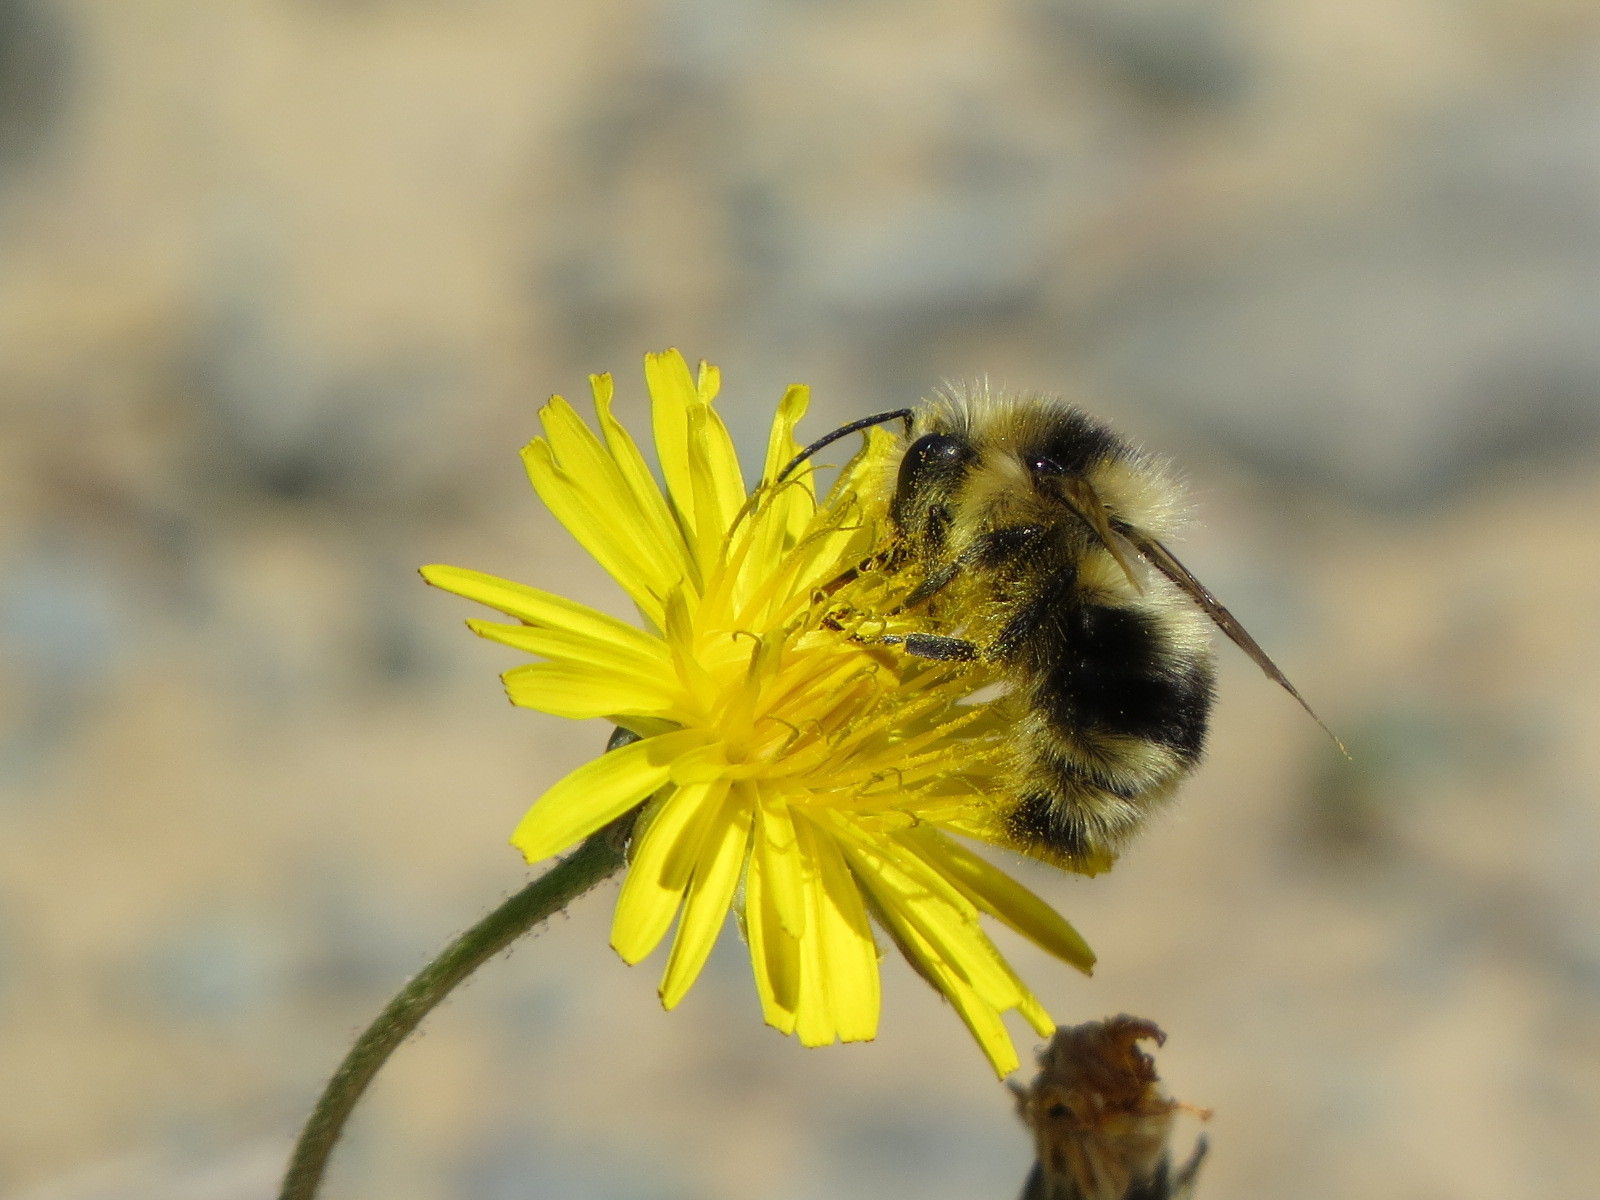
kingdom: Animalia
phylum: Arthropoda
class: Insecta
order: Hymenoptera
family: Apidae
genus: Bombus
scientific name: Bombus melanopygus
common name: Black tail bumble bee
